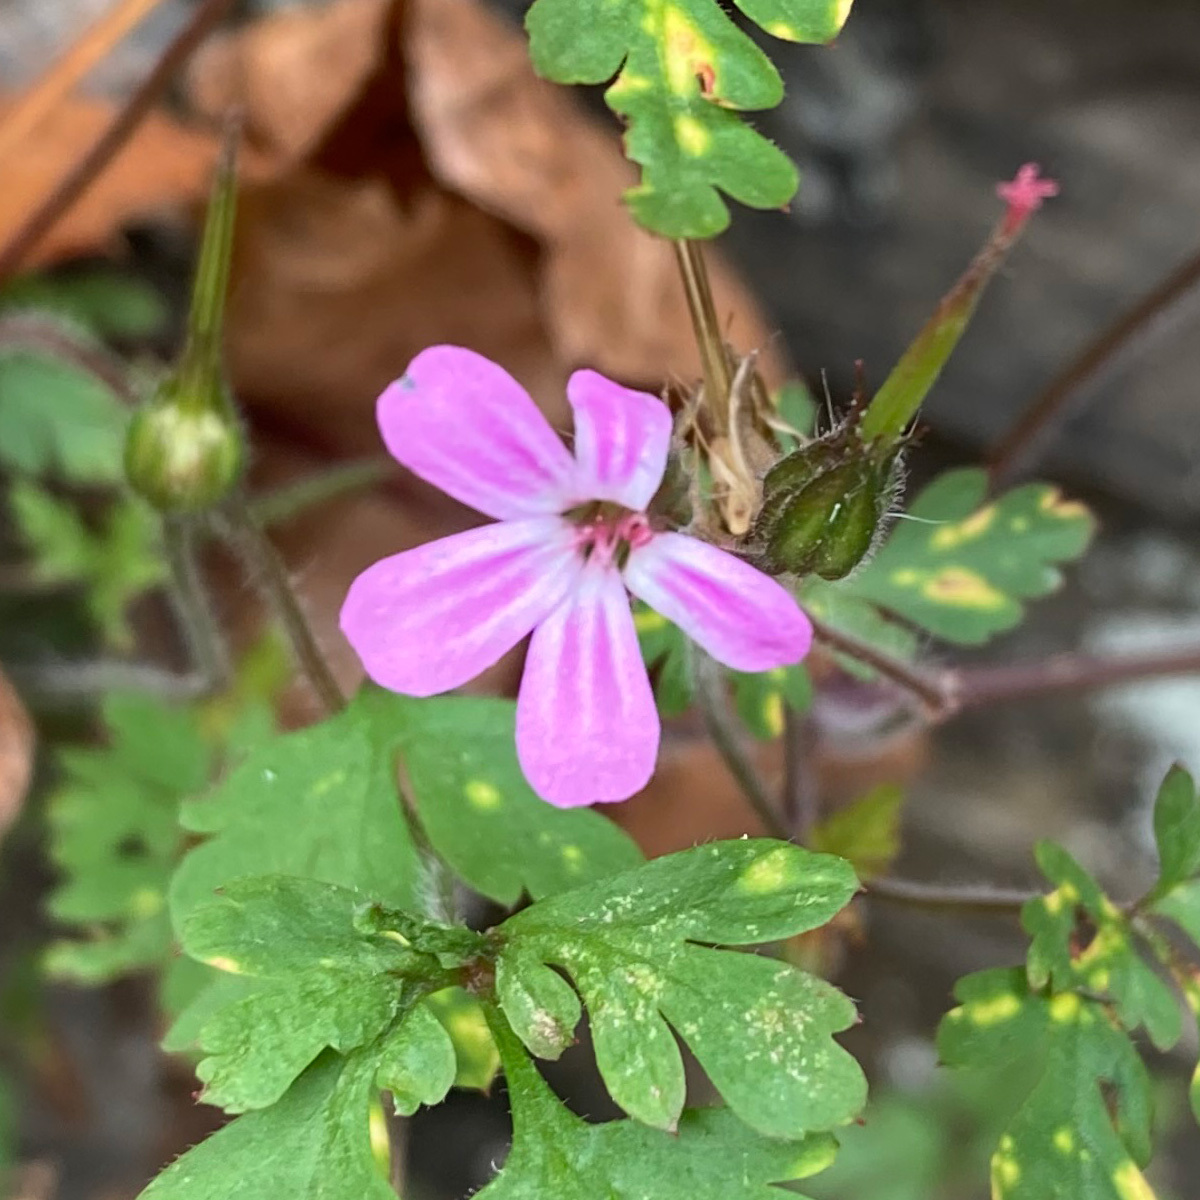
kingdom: Plantae
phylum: Tracheophyta
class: Magnoliopsida
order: Geraniales
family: Geraniaceae
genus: Geranium
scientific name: Geranium robertianum
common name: Herb-robert
